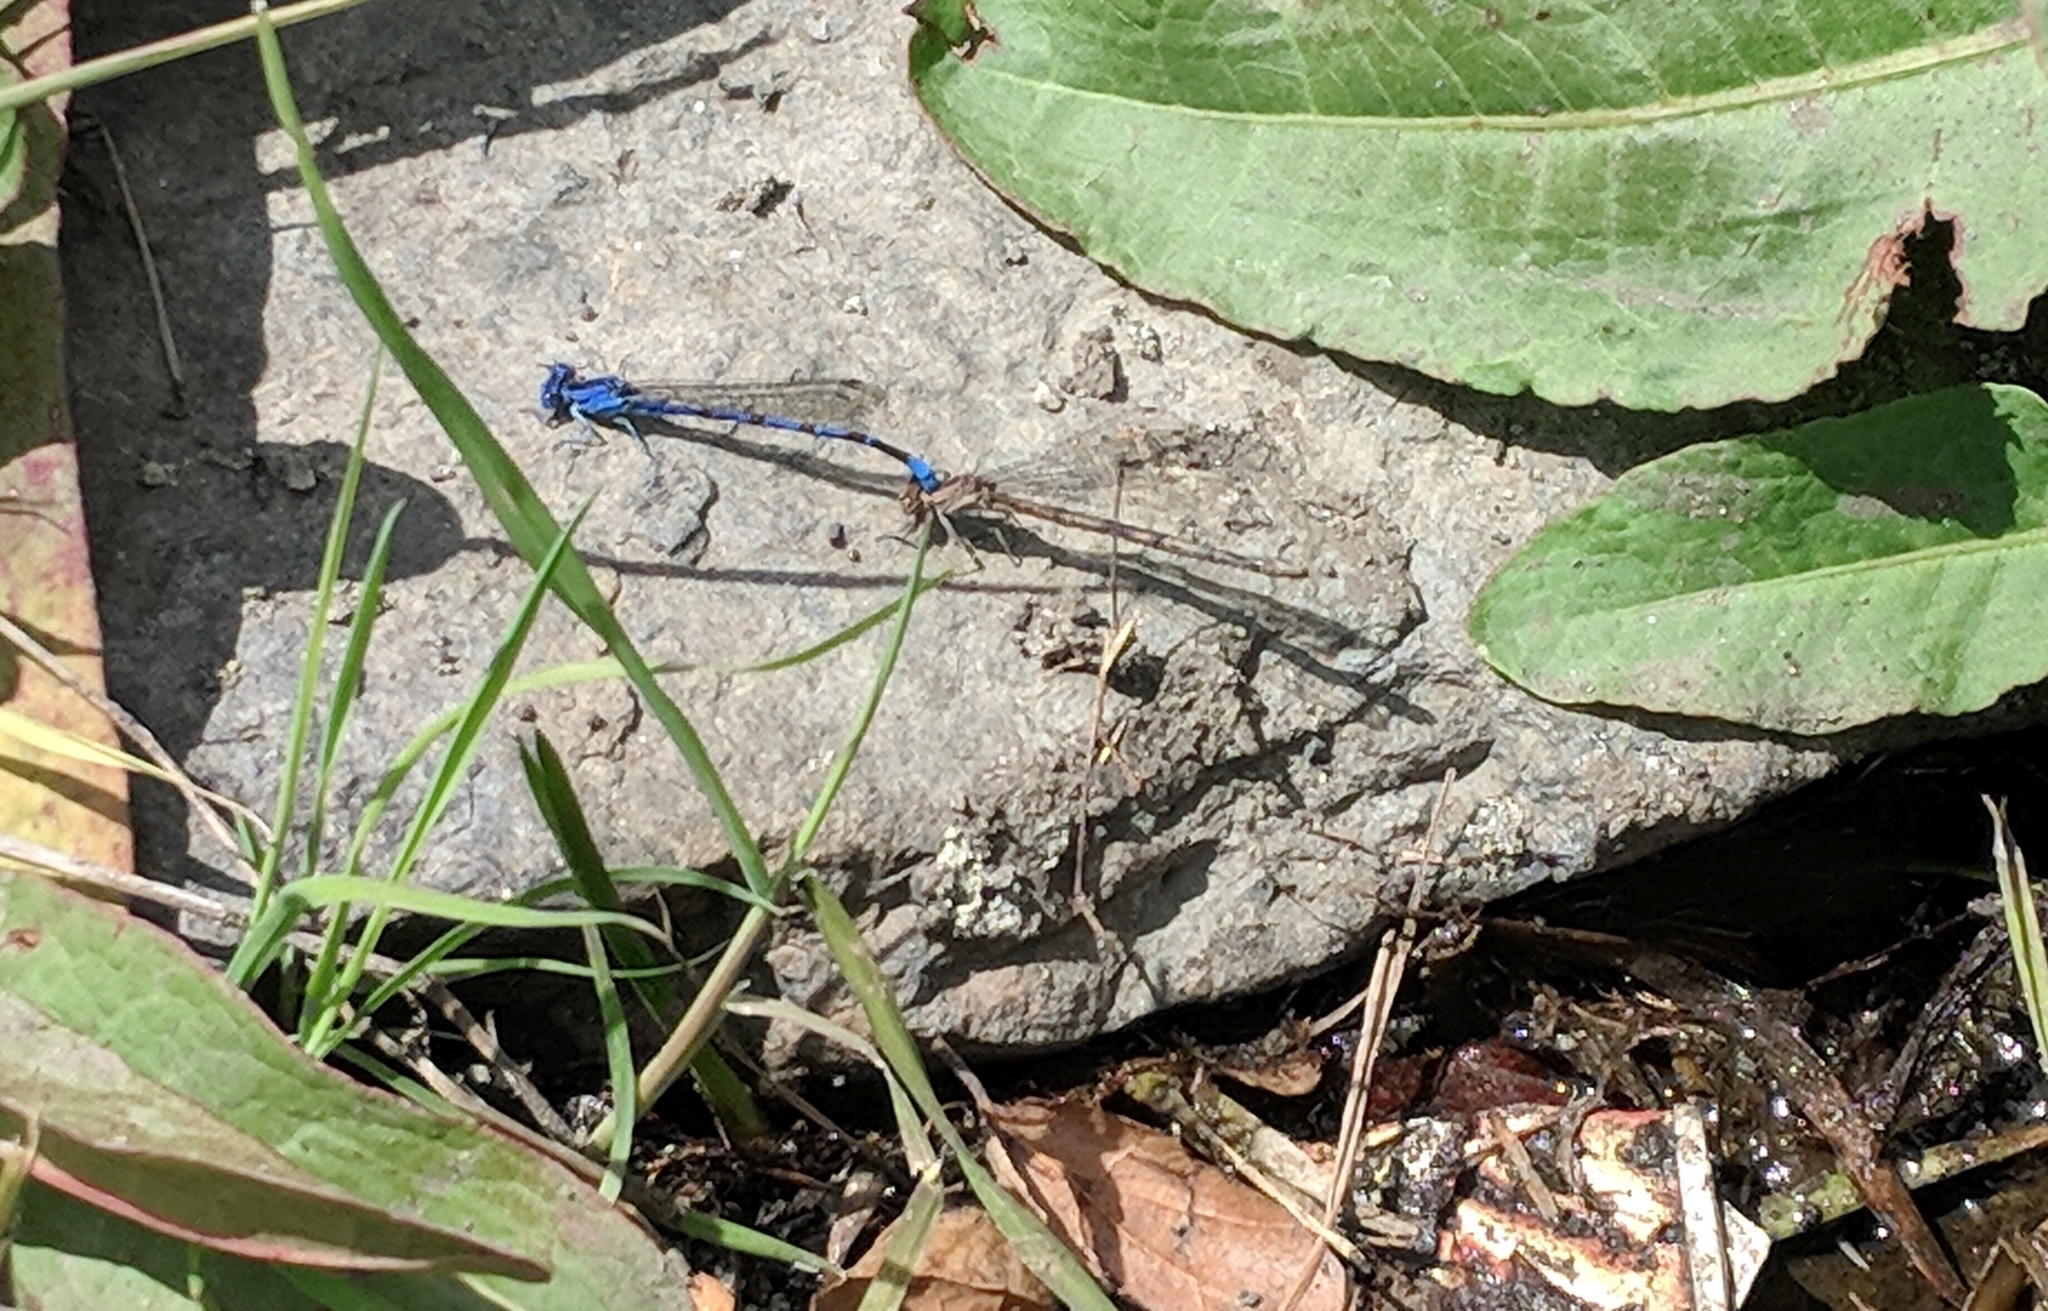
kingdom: Animalia
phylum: Arthropoda
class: Insecta
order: Odonata
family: Coenagrionidae
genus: Argia
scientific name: Argia vivida
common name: Vivid dancer
